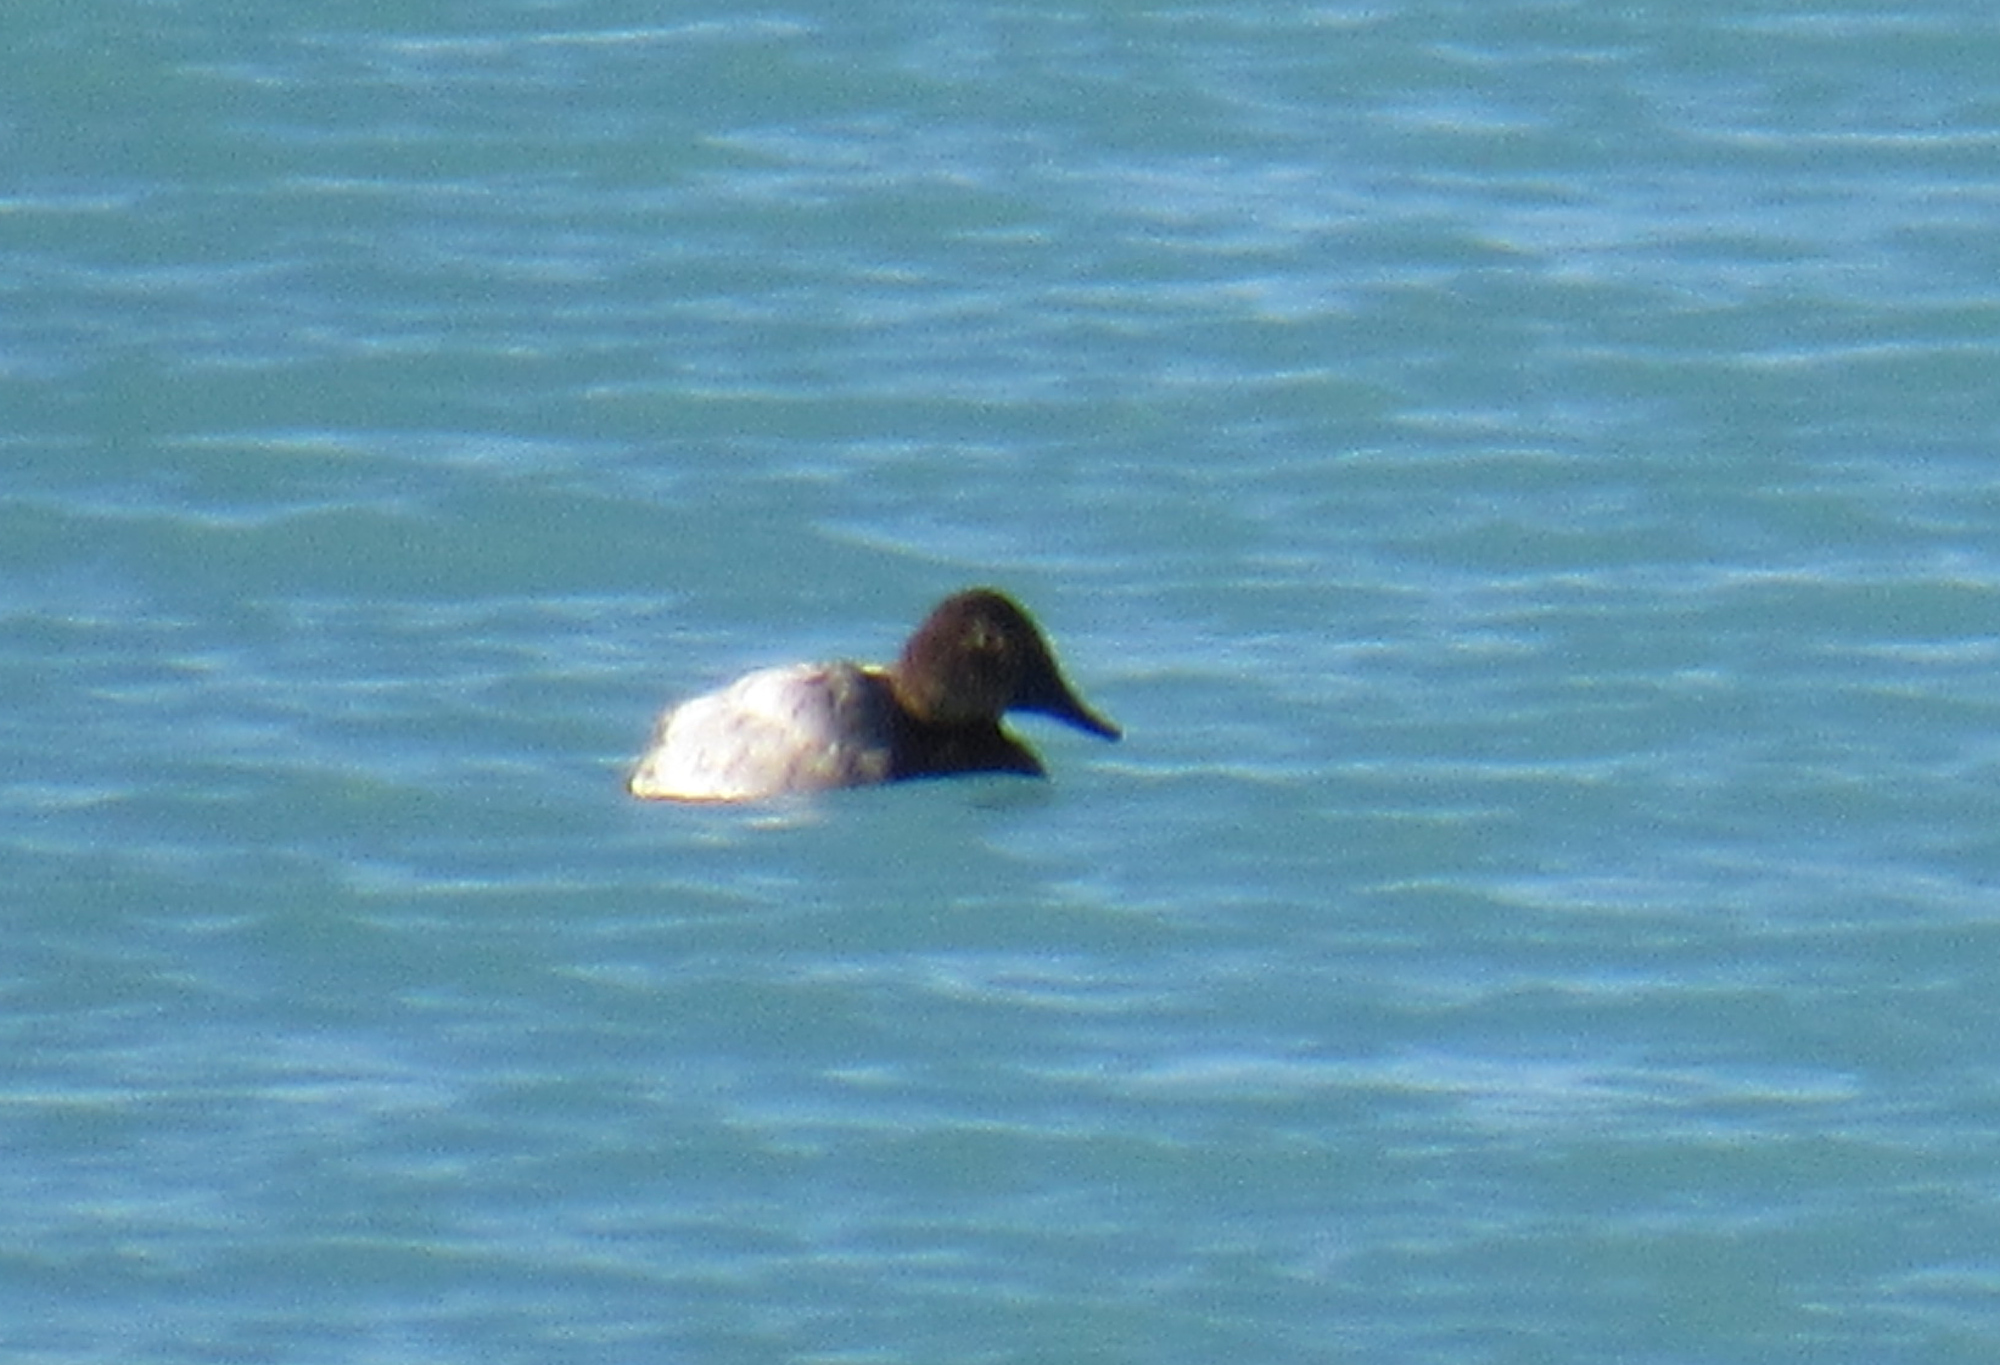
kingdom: Animalia
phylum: Chordata
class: Aves
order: Anseriformes
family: Anatidae
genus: Aythya
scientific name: Aythya valisineria
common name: Canvasback
